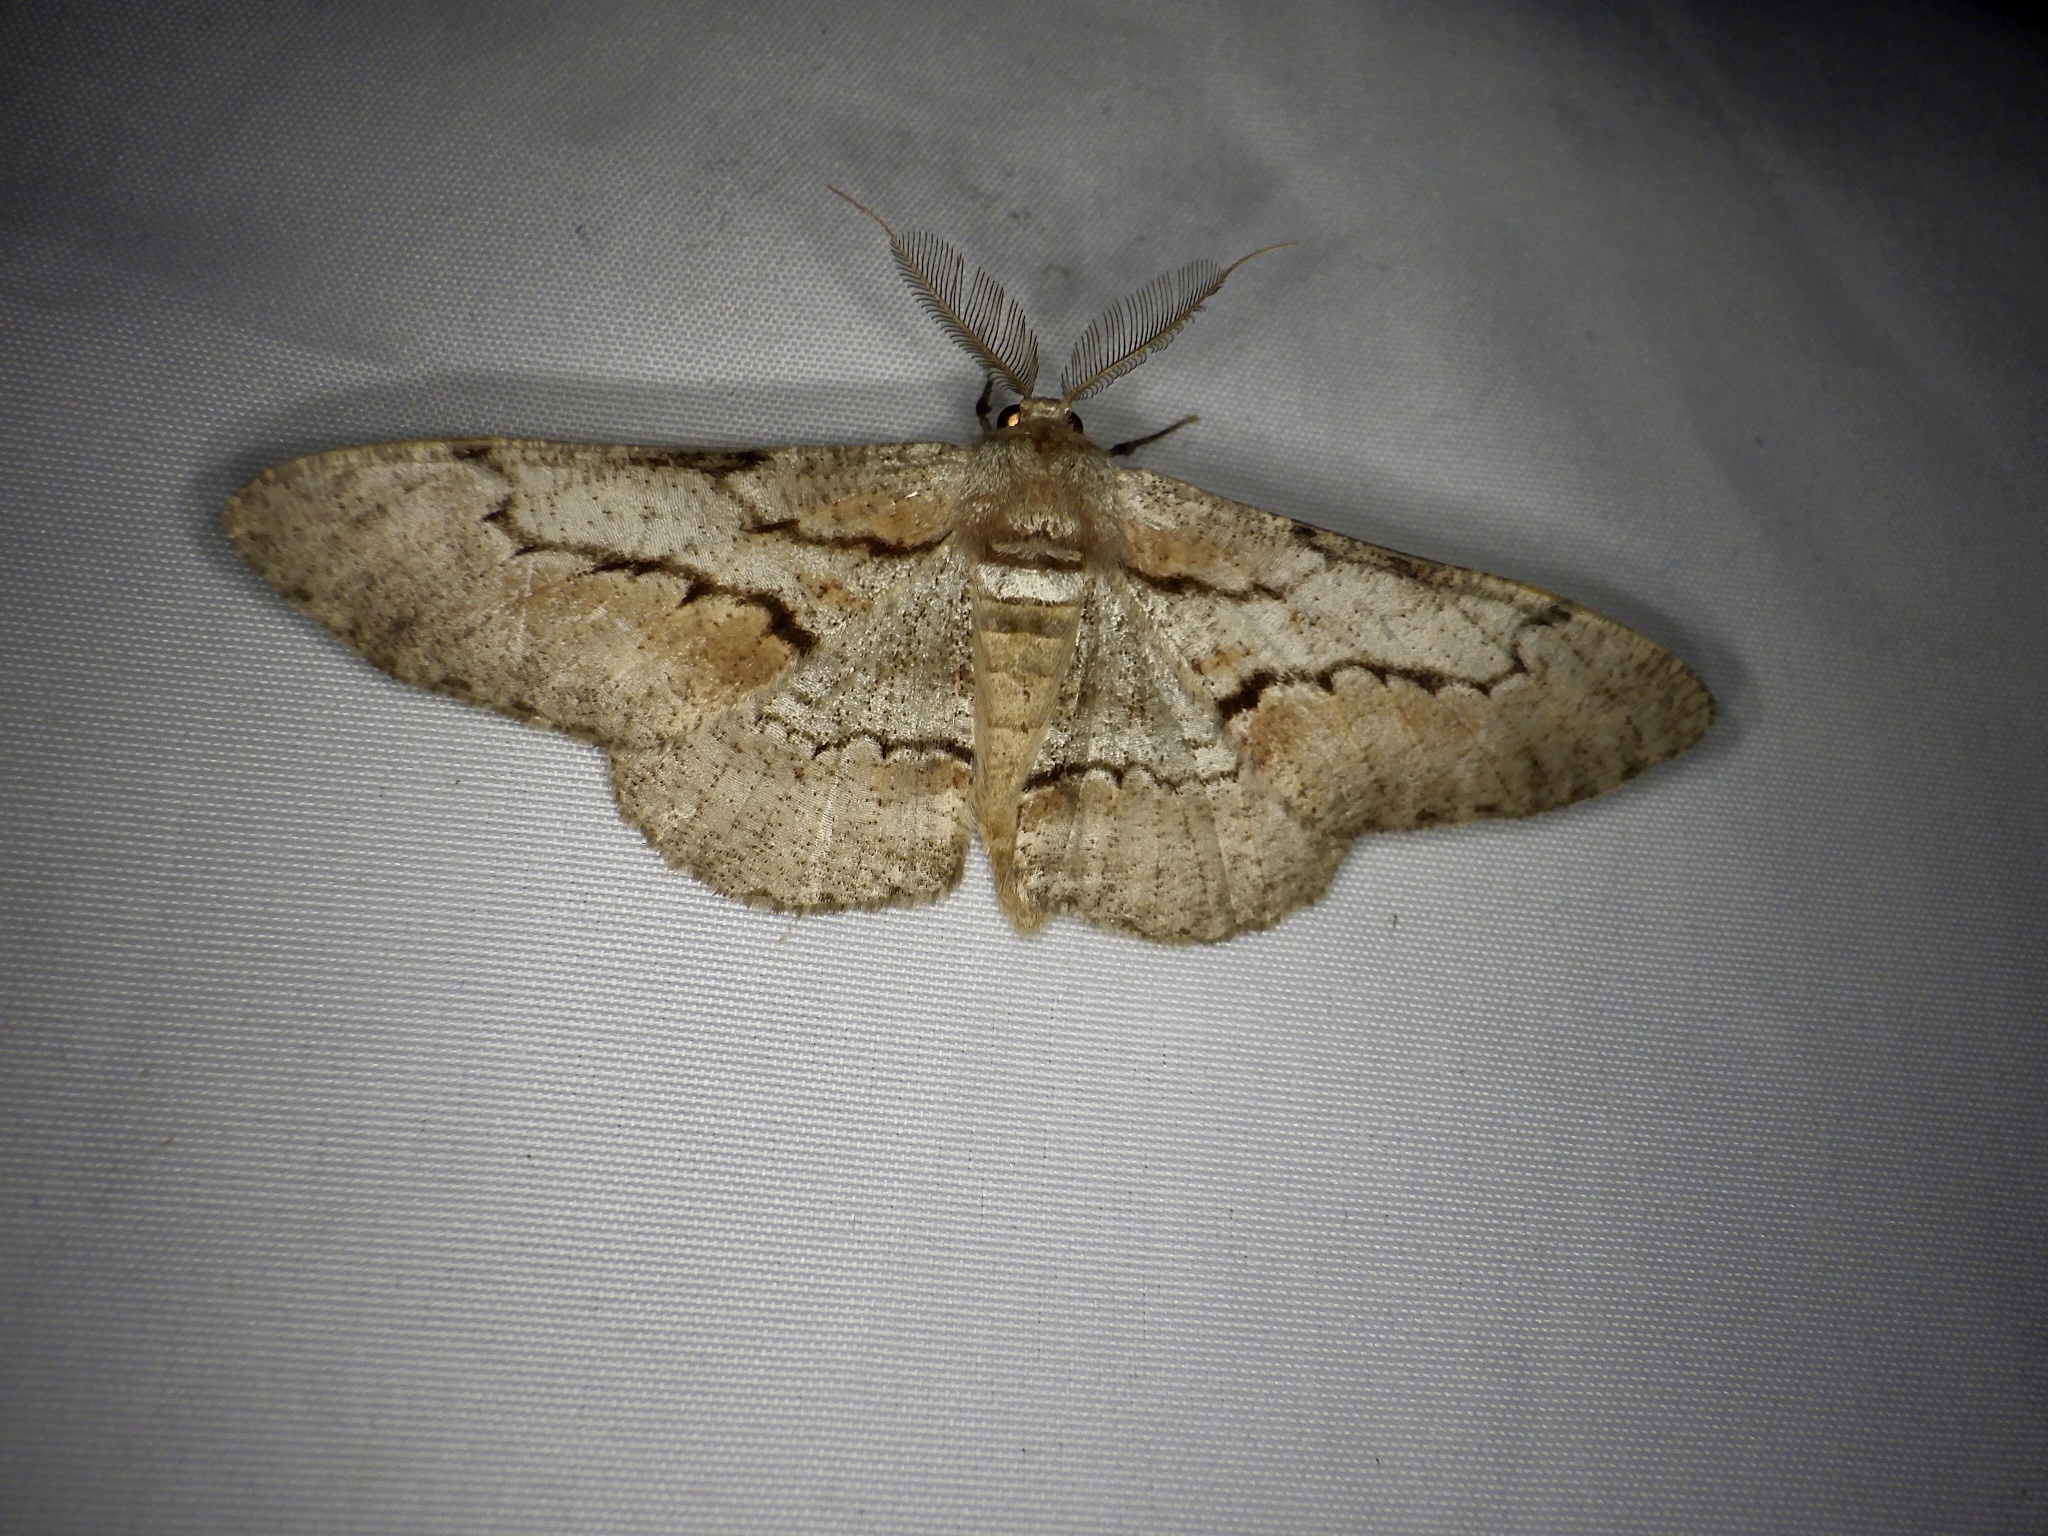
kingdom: Animalia
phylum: Arthropoda
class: Insecta
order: Lepidoptera
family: Geometridae
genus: Phthonosema
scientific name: Phthonosema tendinosaria
